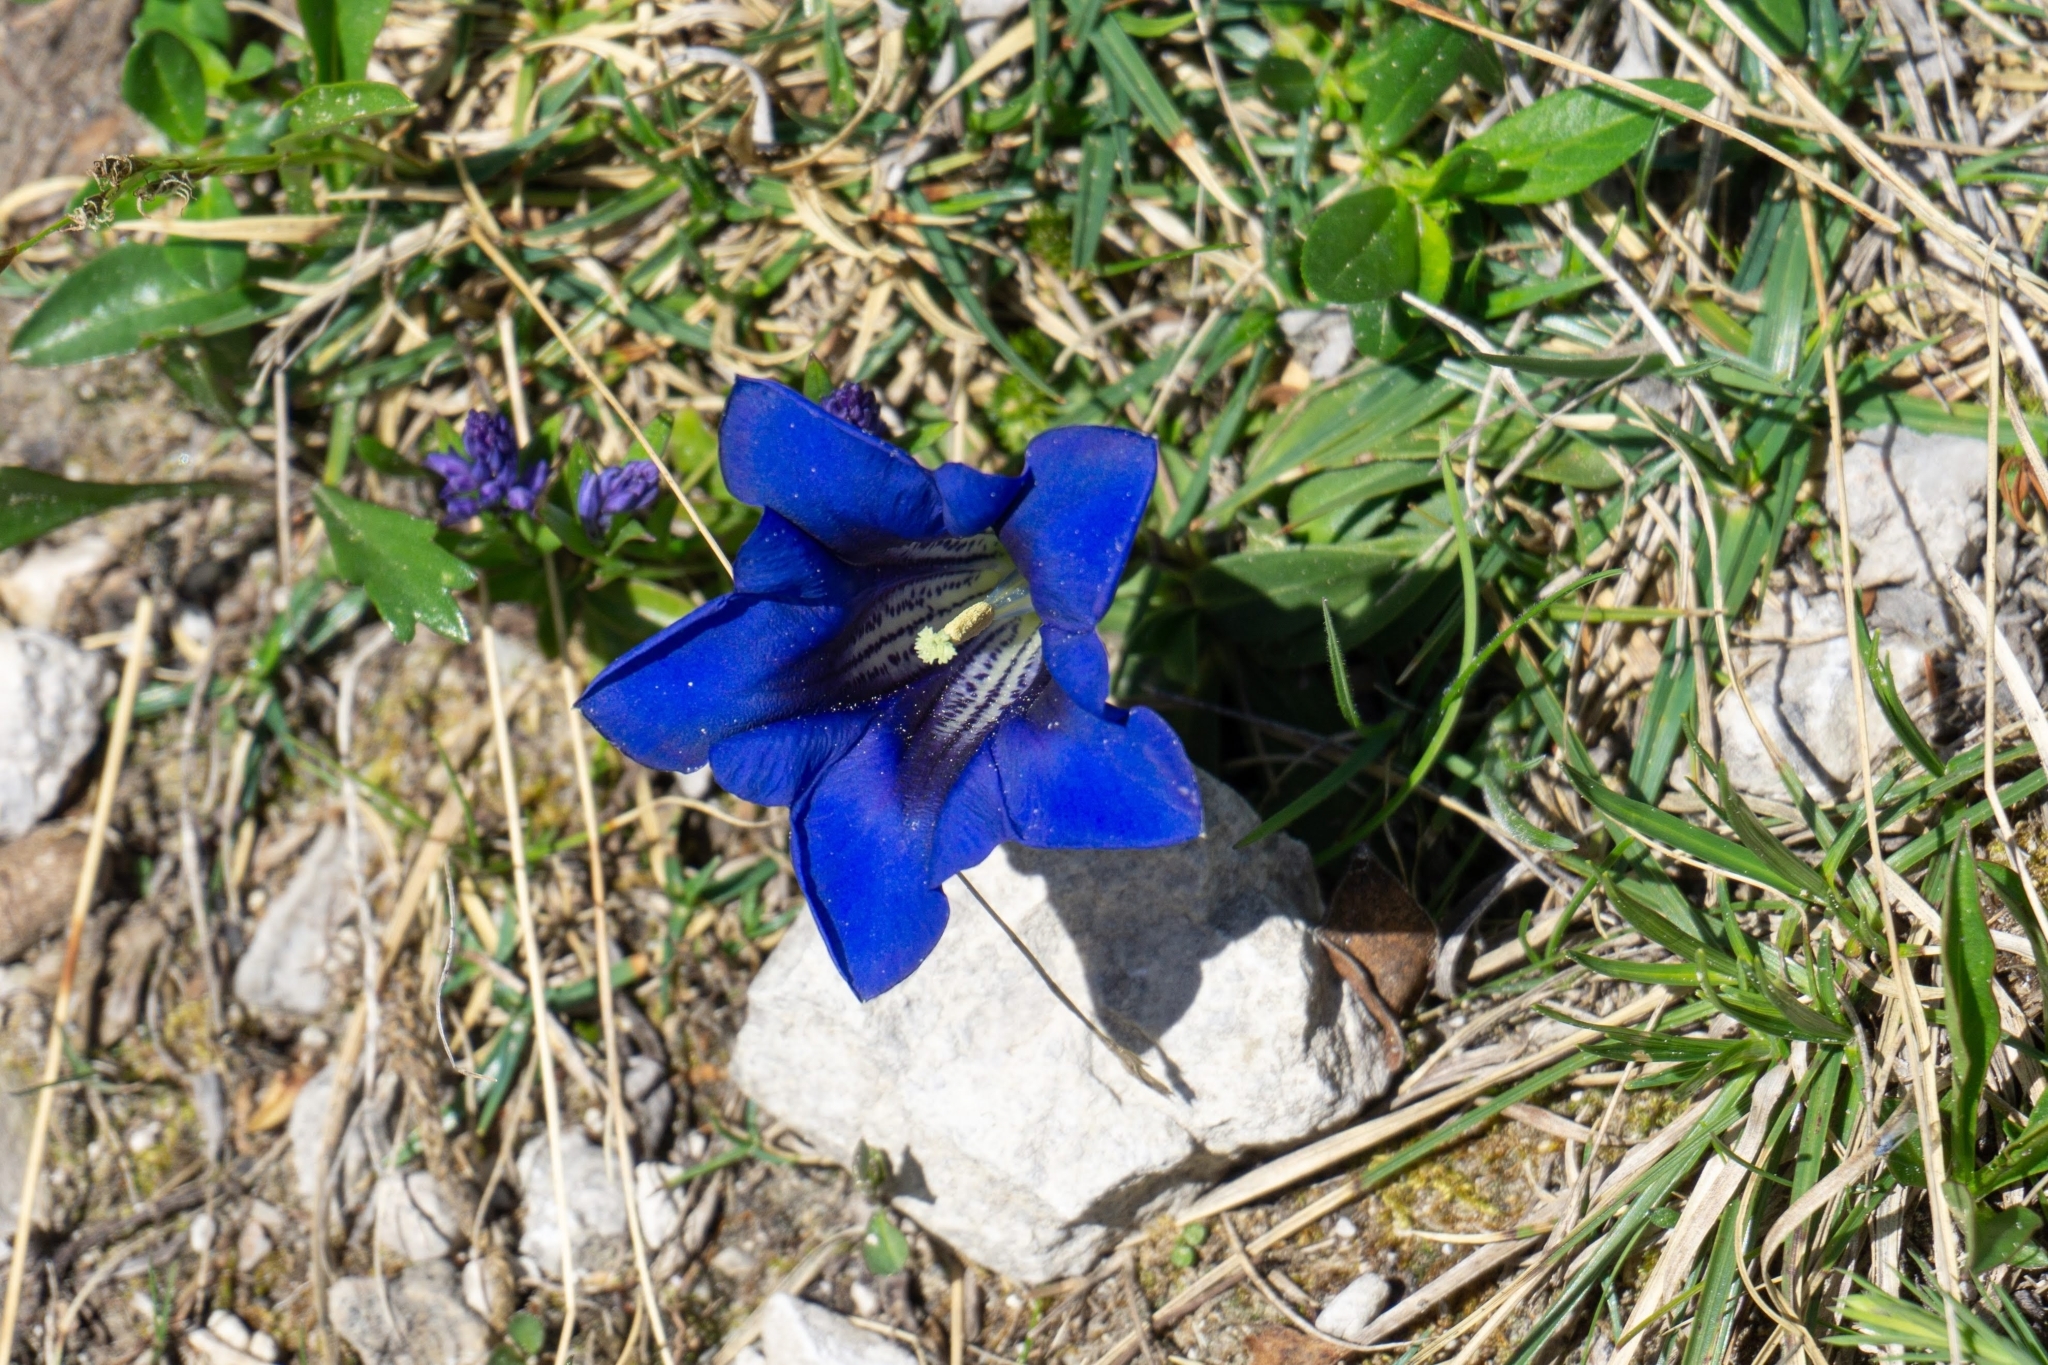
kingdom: Plantae
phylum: Tracheophyta
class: Magnoliopsida
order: Gentianales
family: Gentianaceae
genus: Gentiana
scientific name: Gentiana clusii
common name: Trumpet gentian
